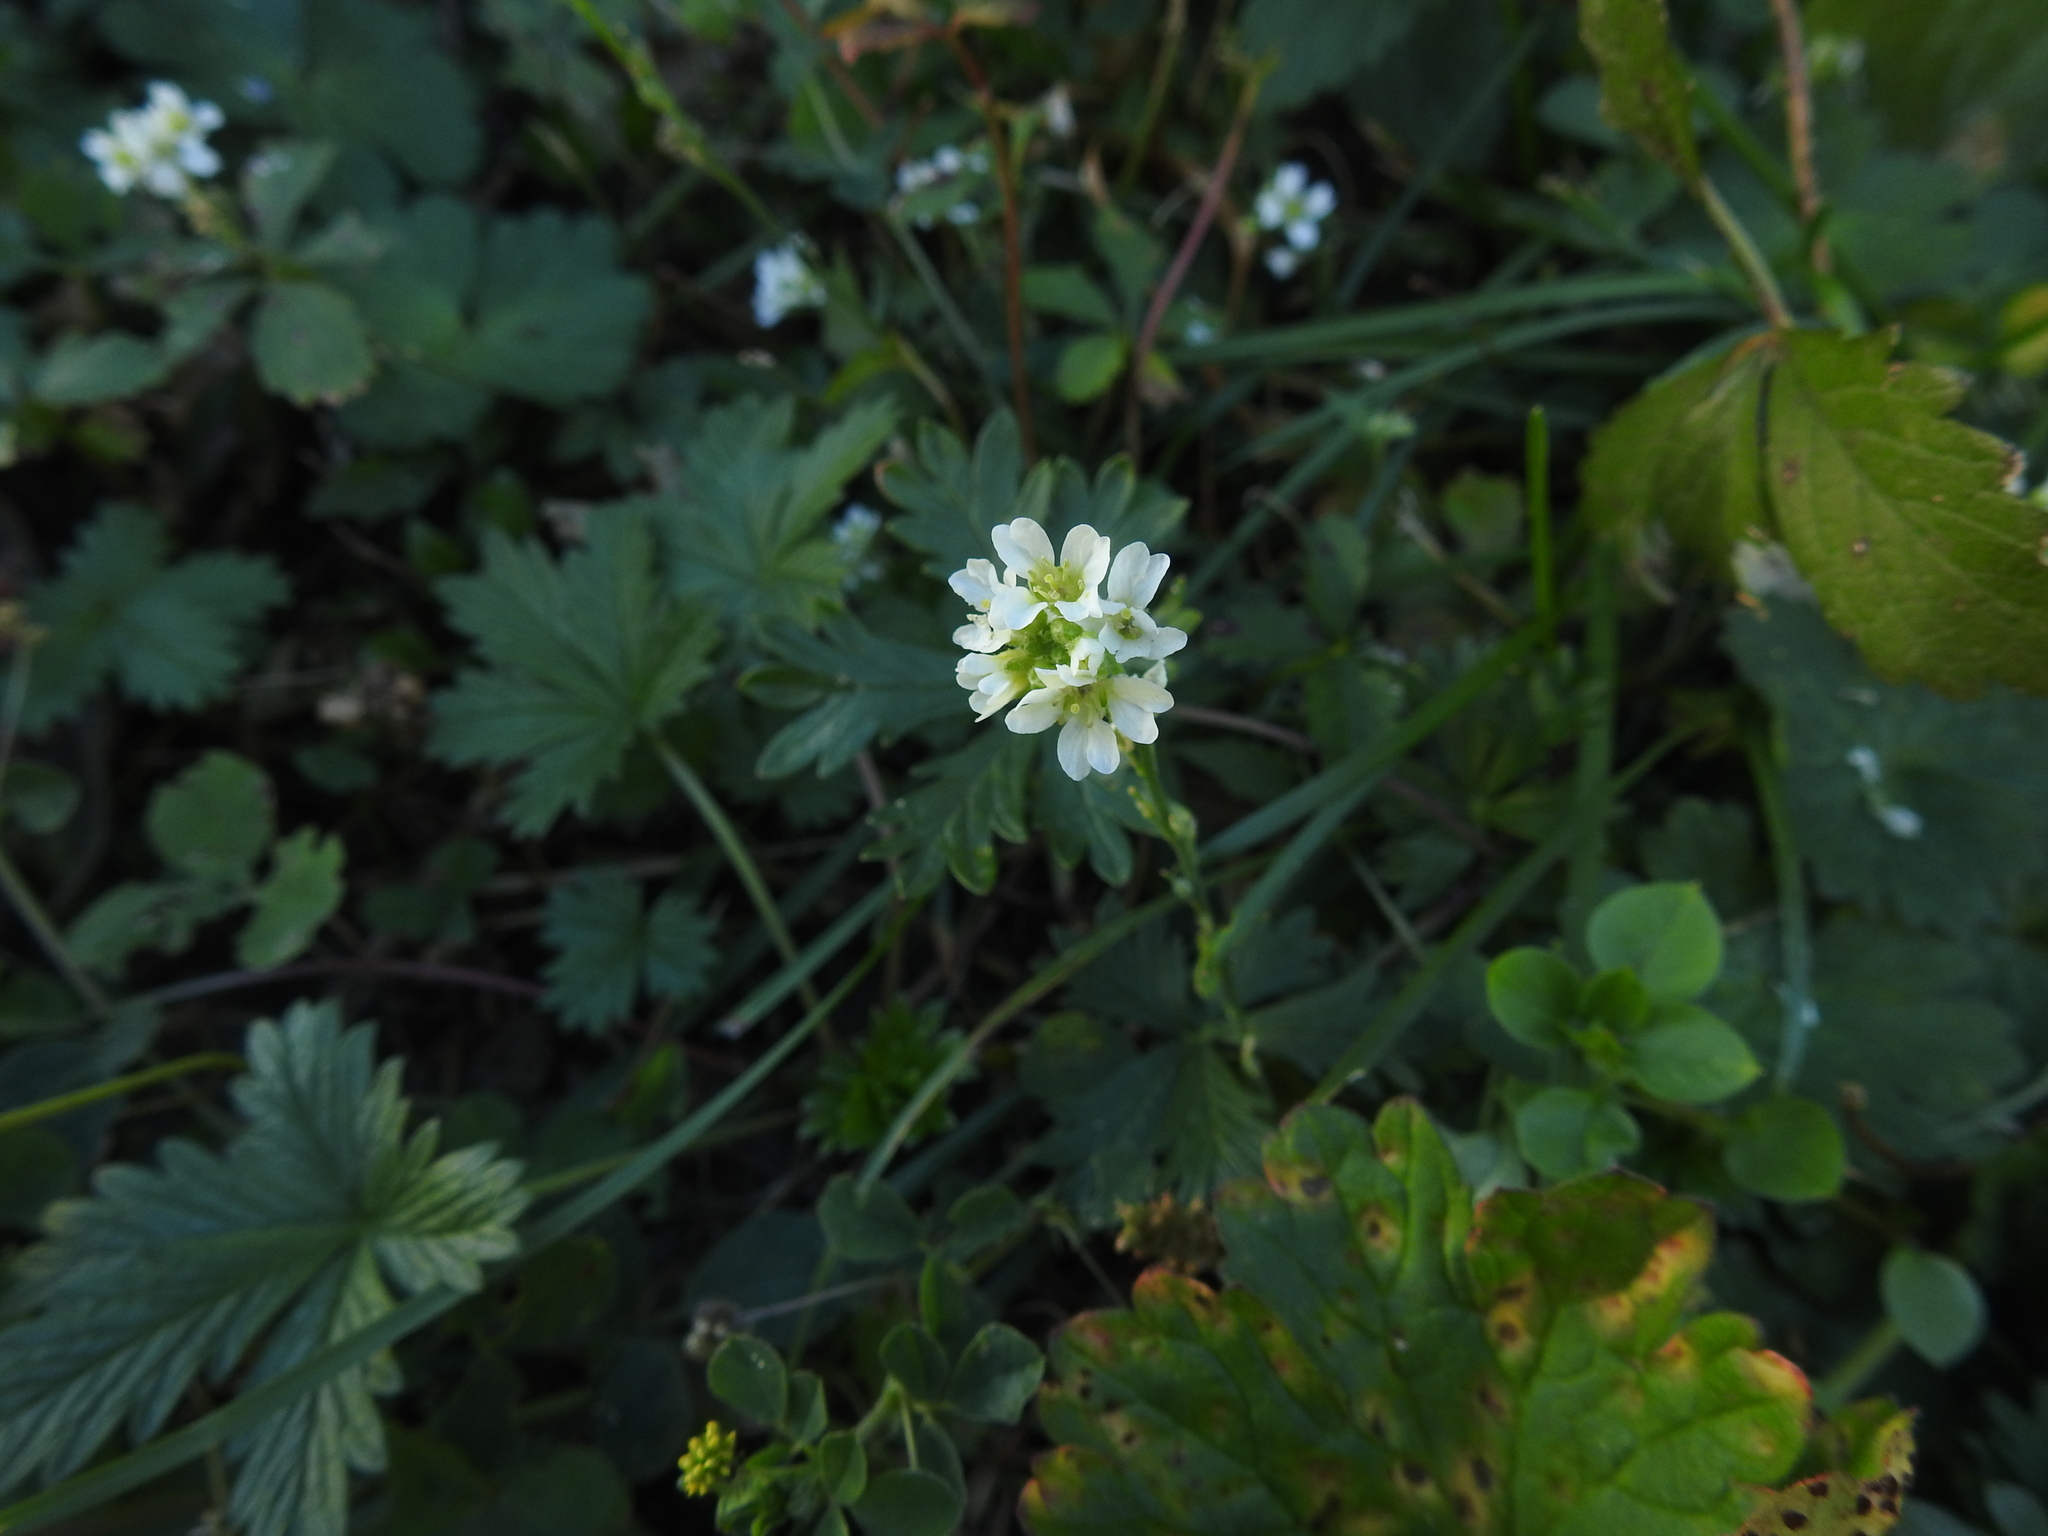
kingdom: Plantae
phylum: Tracheophyta
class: Magnoliopsida
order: Brassicales
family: Brassicaceae
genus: Berteroa
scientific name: Berteroa incana
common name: Hoary alison
